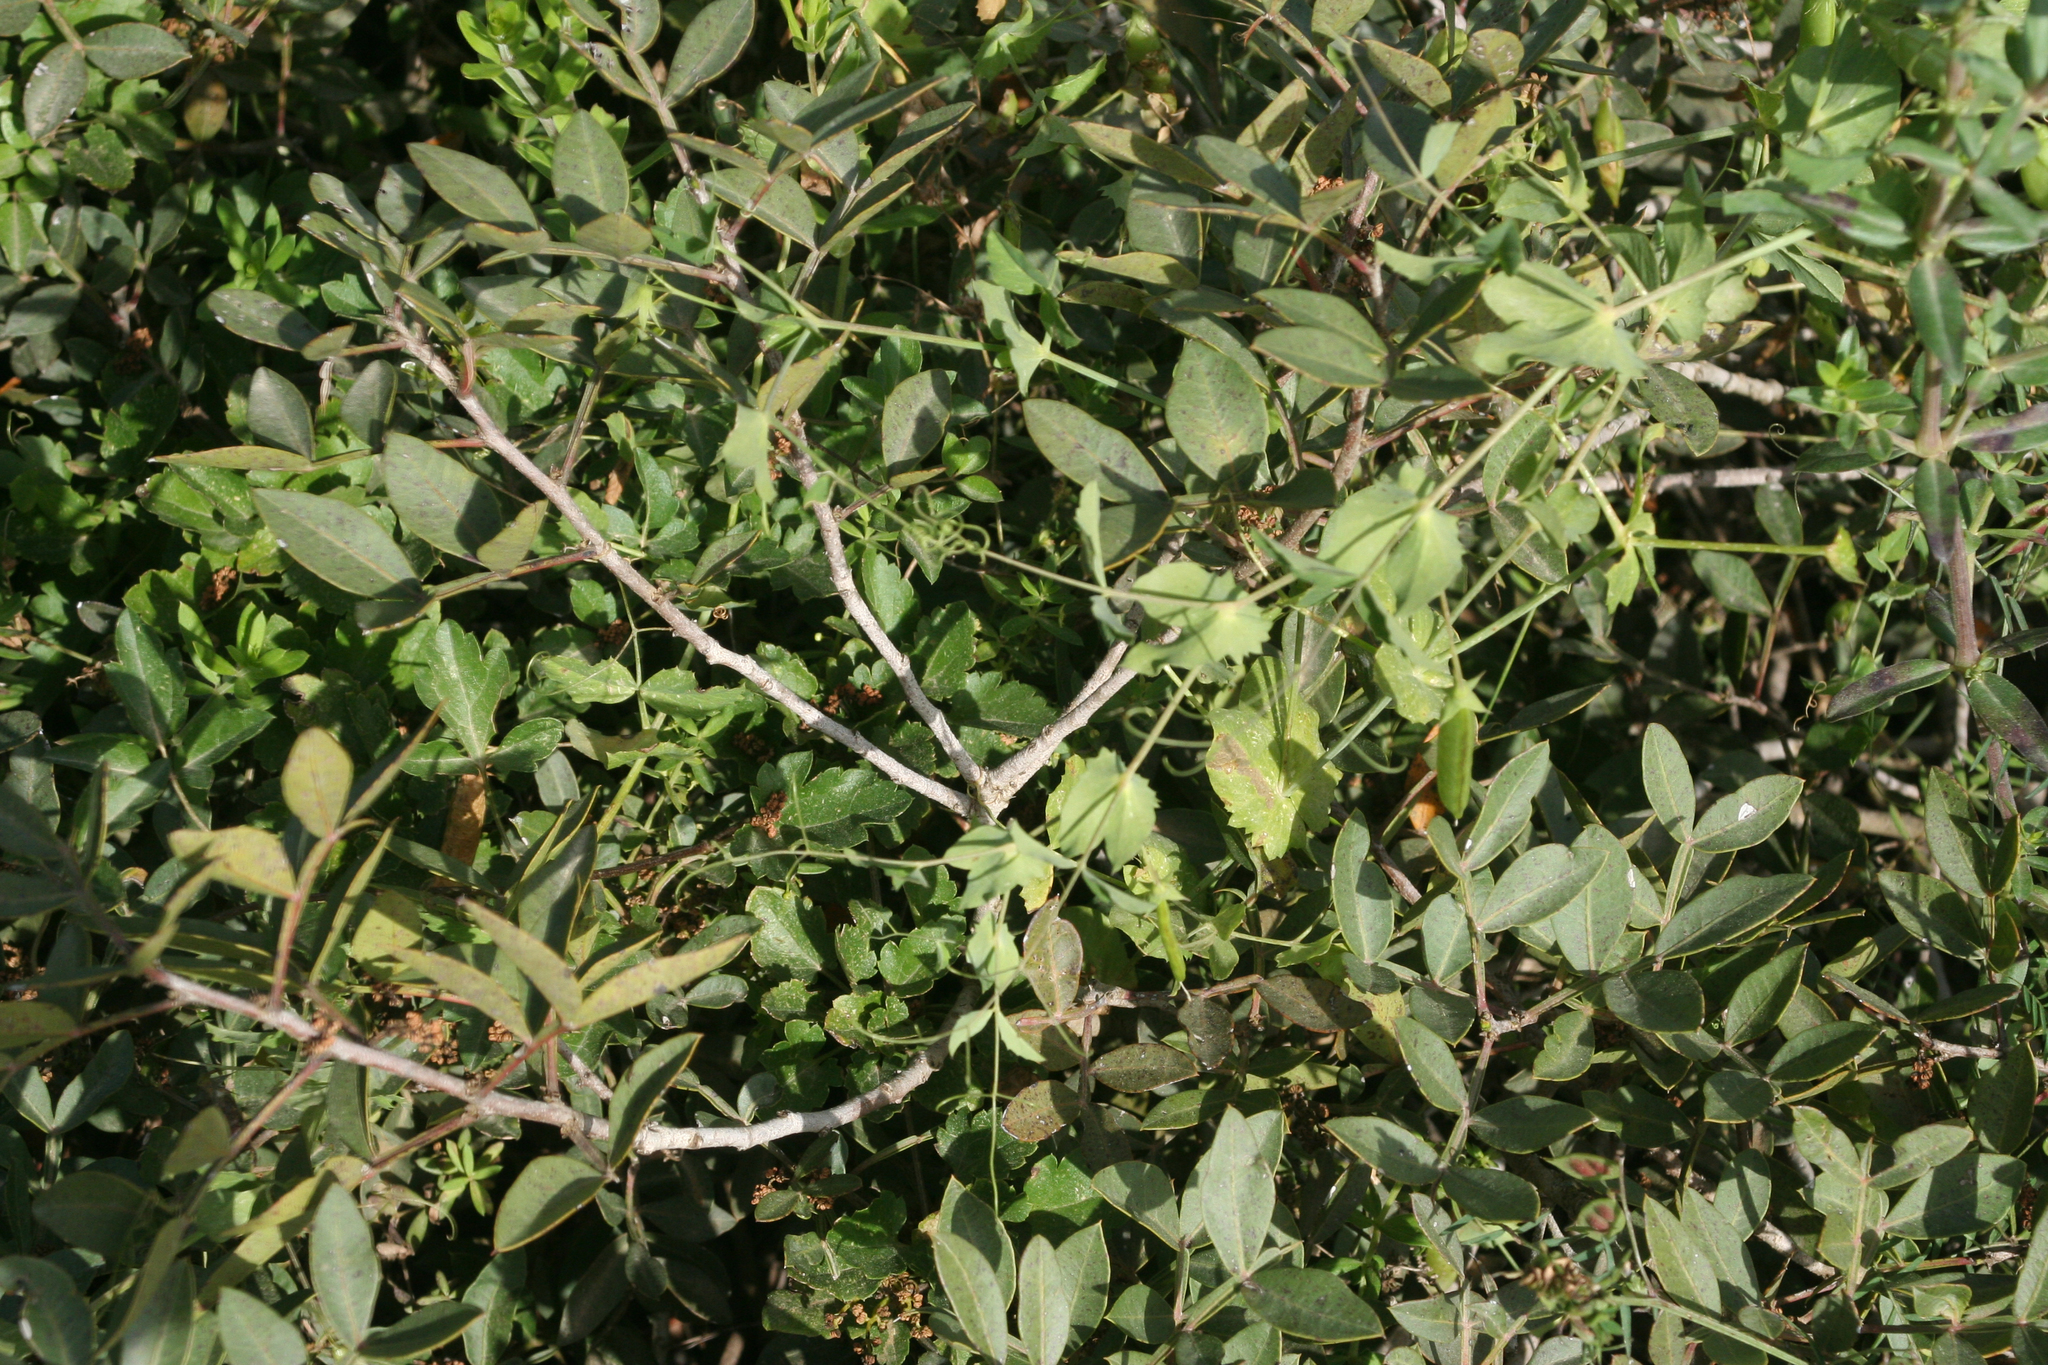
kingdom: Plantae
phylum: Tracheophyta
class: Magnoliopsida
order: Fabales
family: Fabaceae
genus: Lathyrus
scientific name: Lathyrus fulvus
